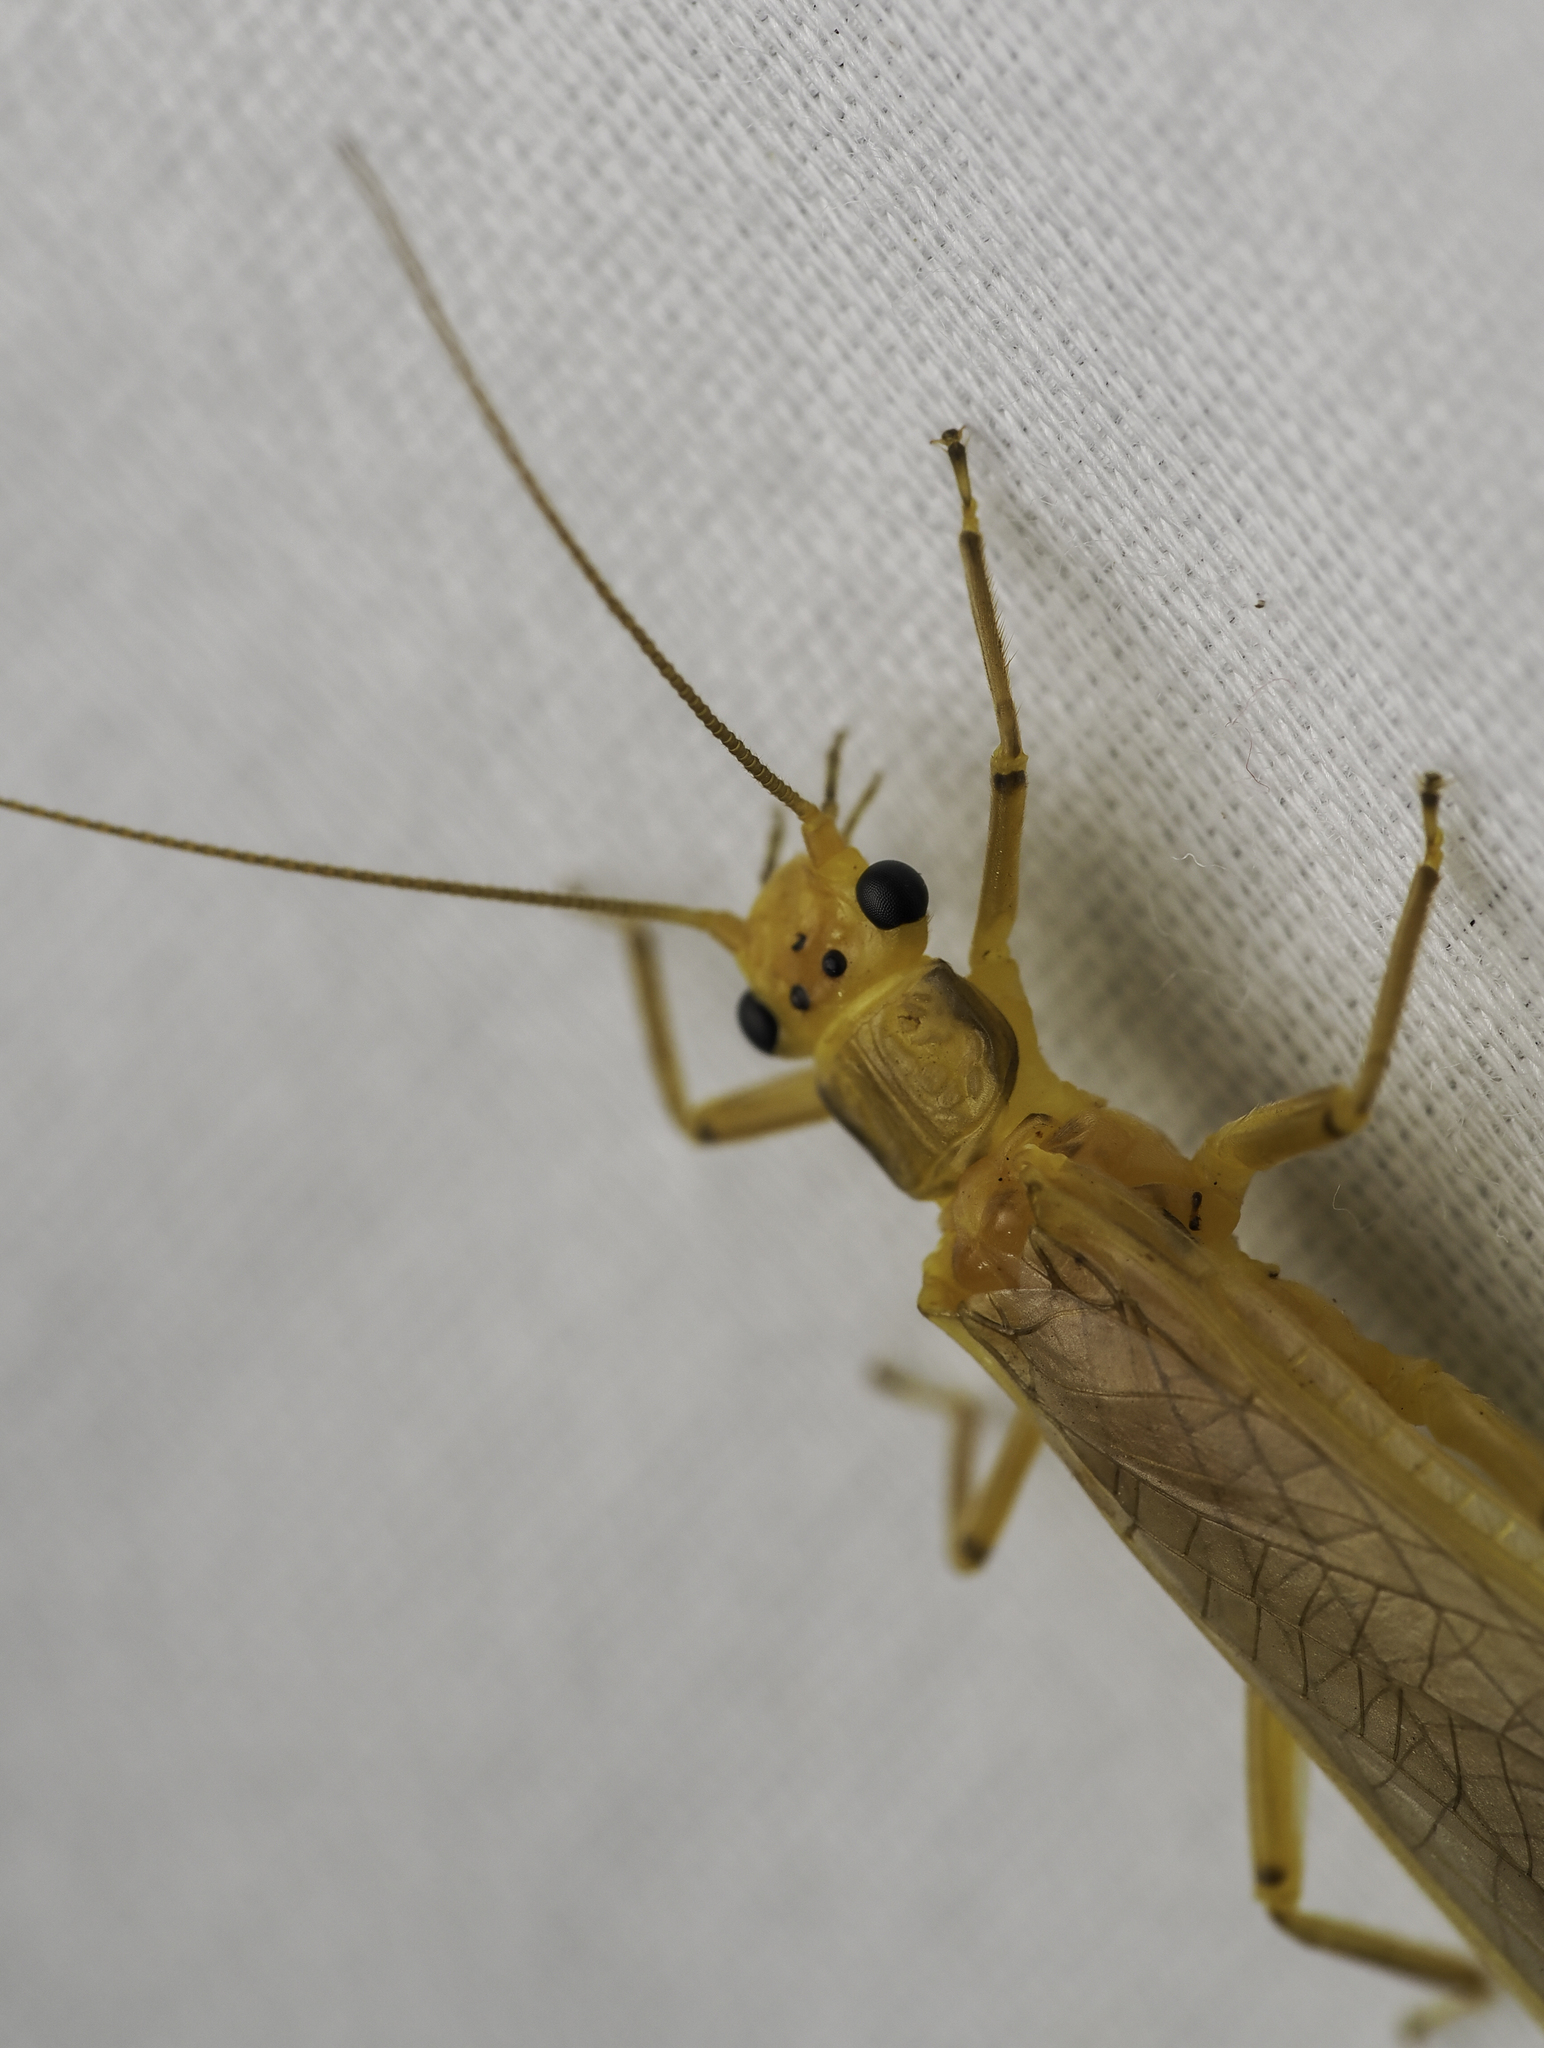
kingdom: Animalia
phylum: Arthropoda
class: Insecta
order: Plecoptera
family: Perlidae
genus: Eccoptura
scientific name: Eccoptura xanthenes
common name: Yellow stone
